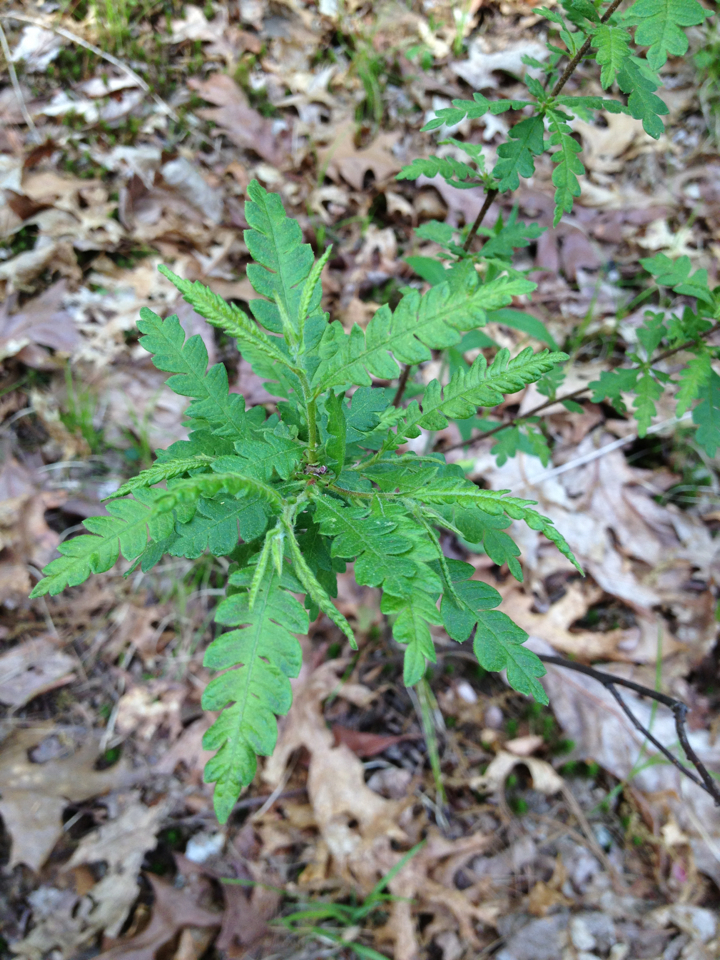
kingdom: Plantae
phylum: Tracheophyta
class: Magnoliopsida
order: Fagales
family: Myricaceae
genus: Comptonia
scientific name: Comptonia peregrina
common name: Sweet-fern
